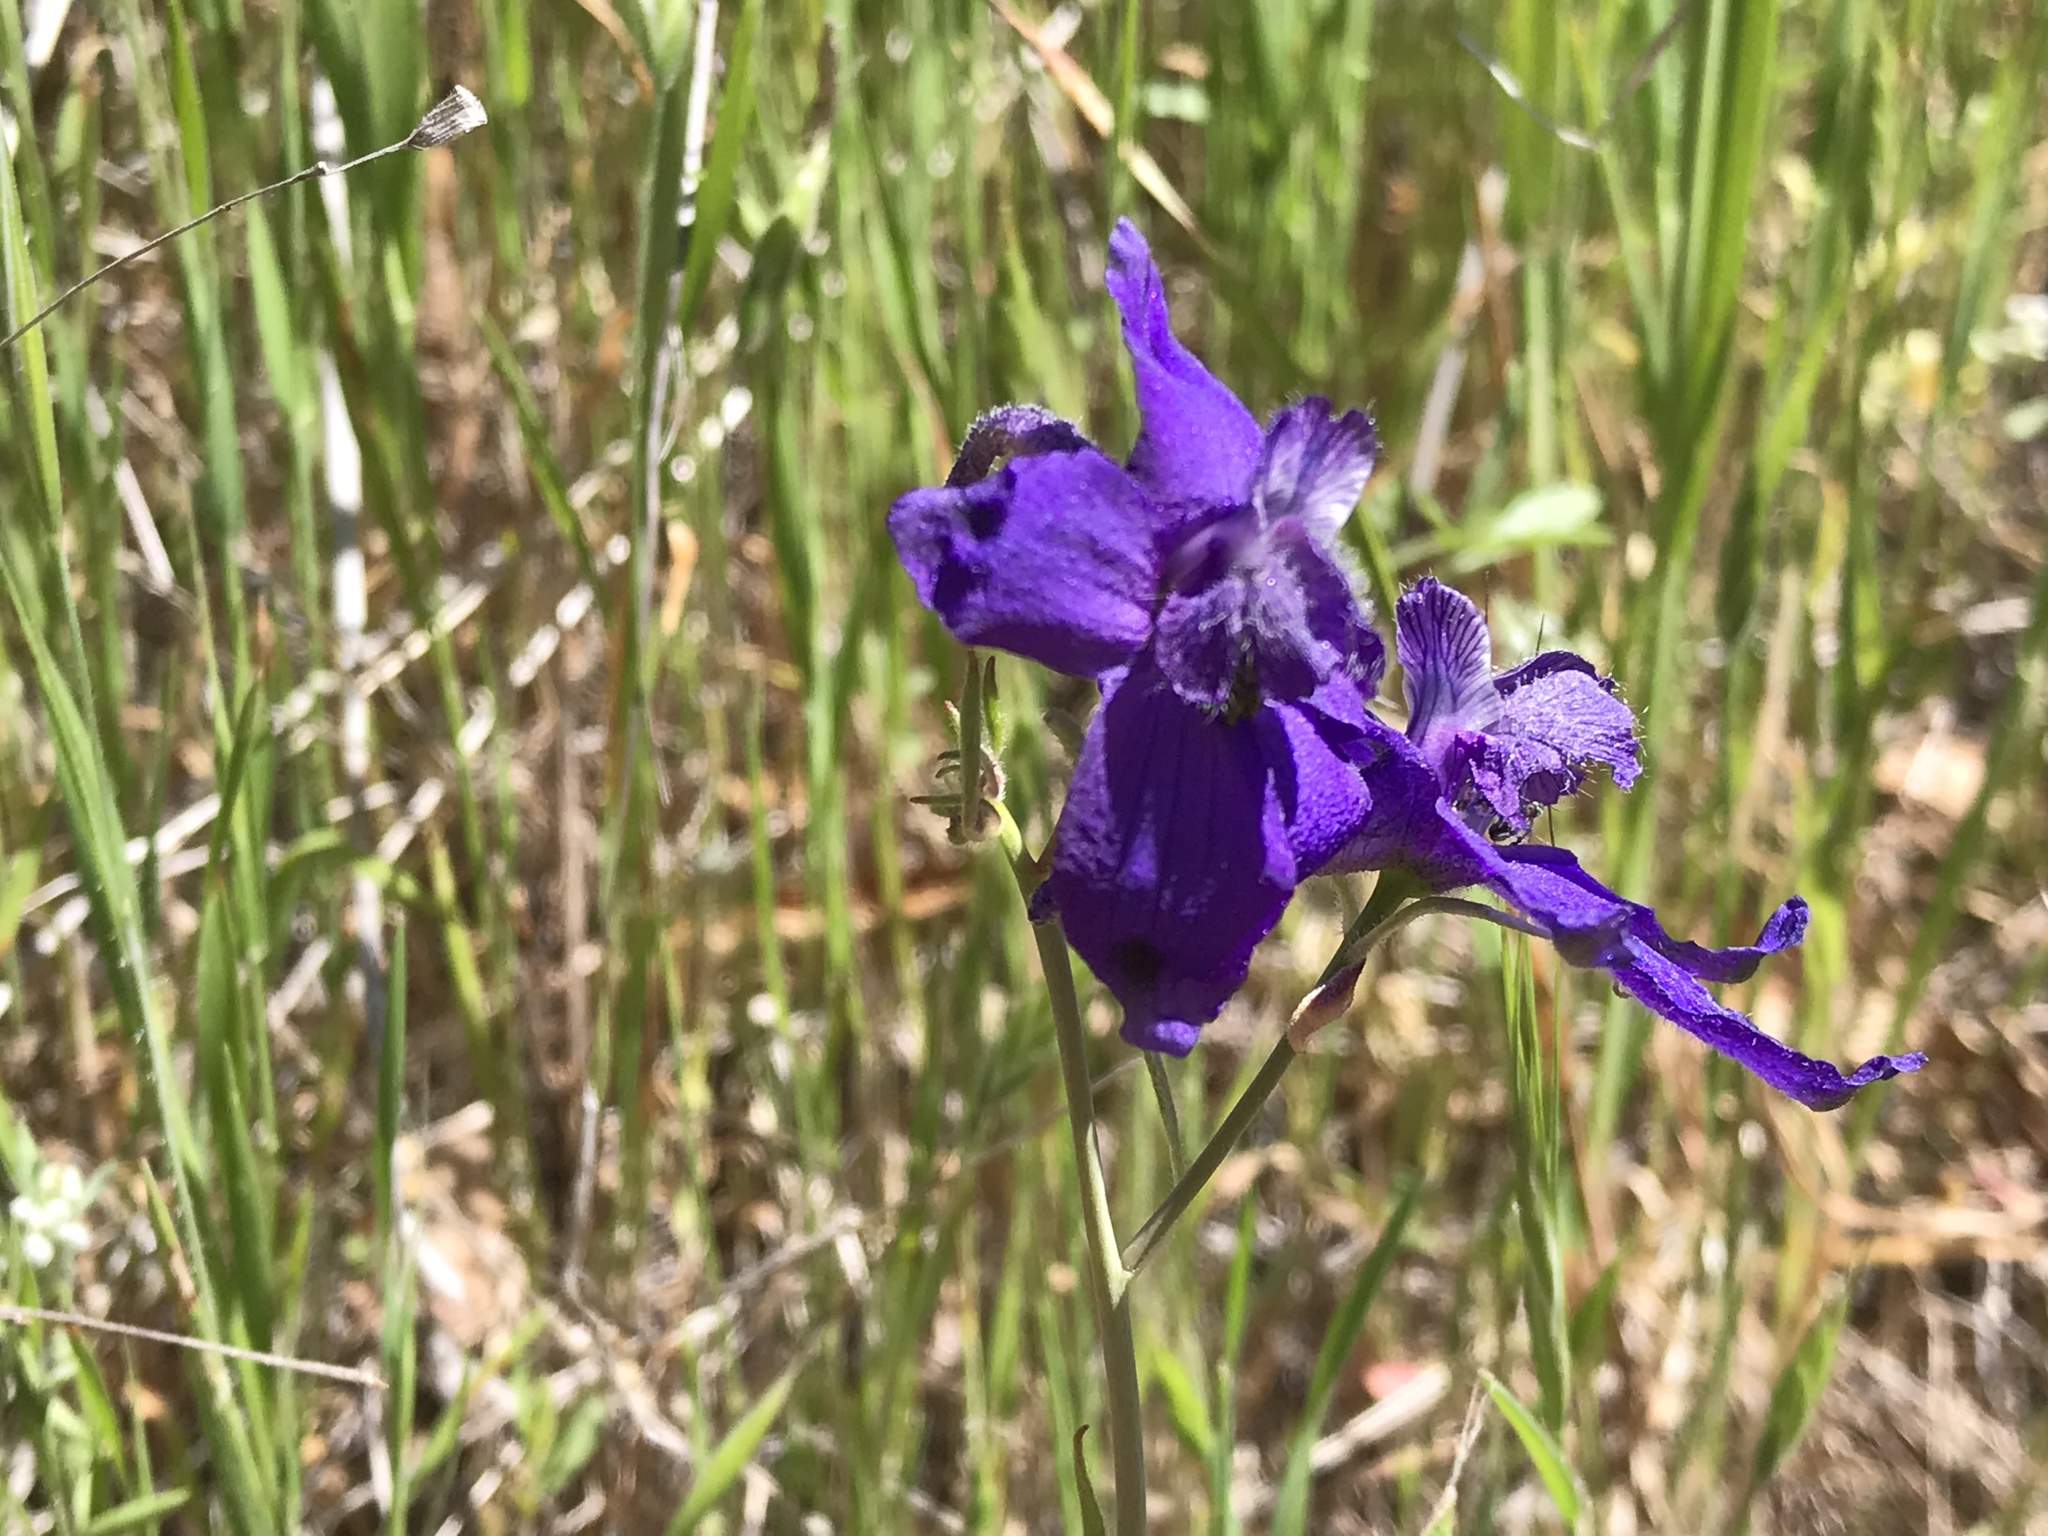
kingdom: Plantae
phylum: Tracheophyta
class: Magnoliopsida
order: Ranunculales
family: Ranunculaceae
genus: Delphinium
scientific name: Delphinium patens
